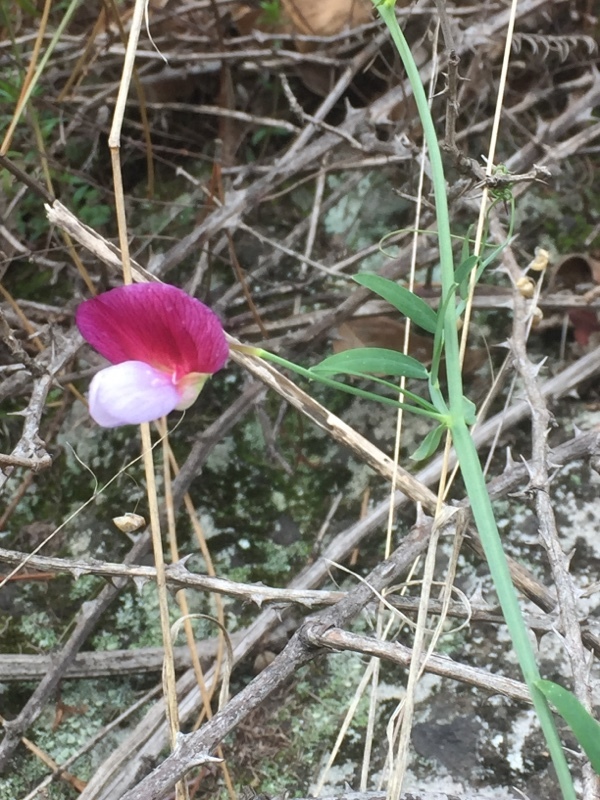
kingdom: Plantae
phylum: Tracheophyta
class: Magnoliopsida
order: Fabales
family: Fabaceae
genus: Lathyrus
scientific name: Lathyrus clymenum
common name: Spanish vetchling
